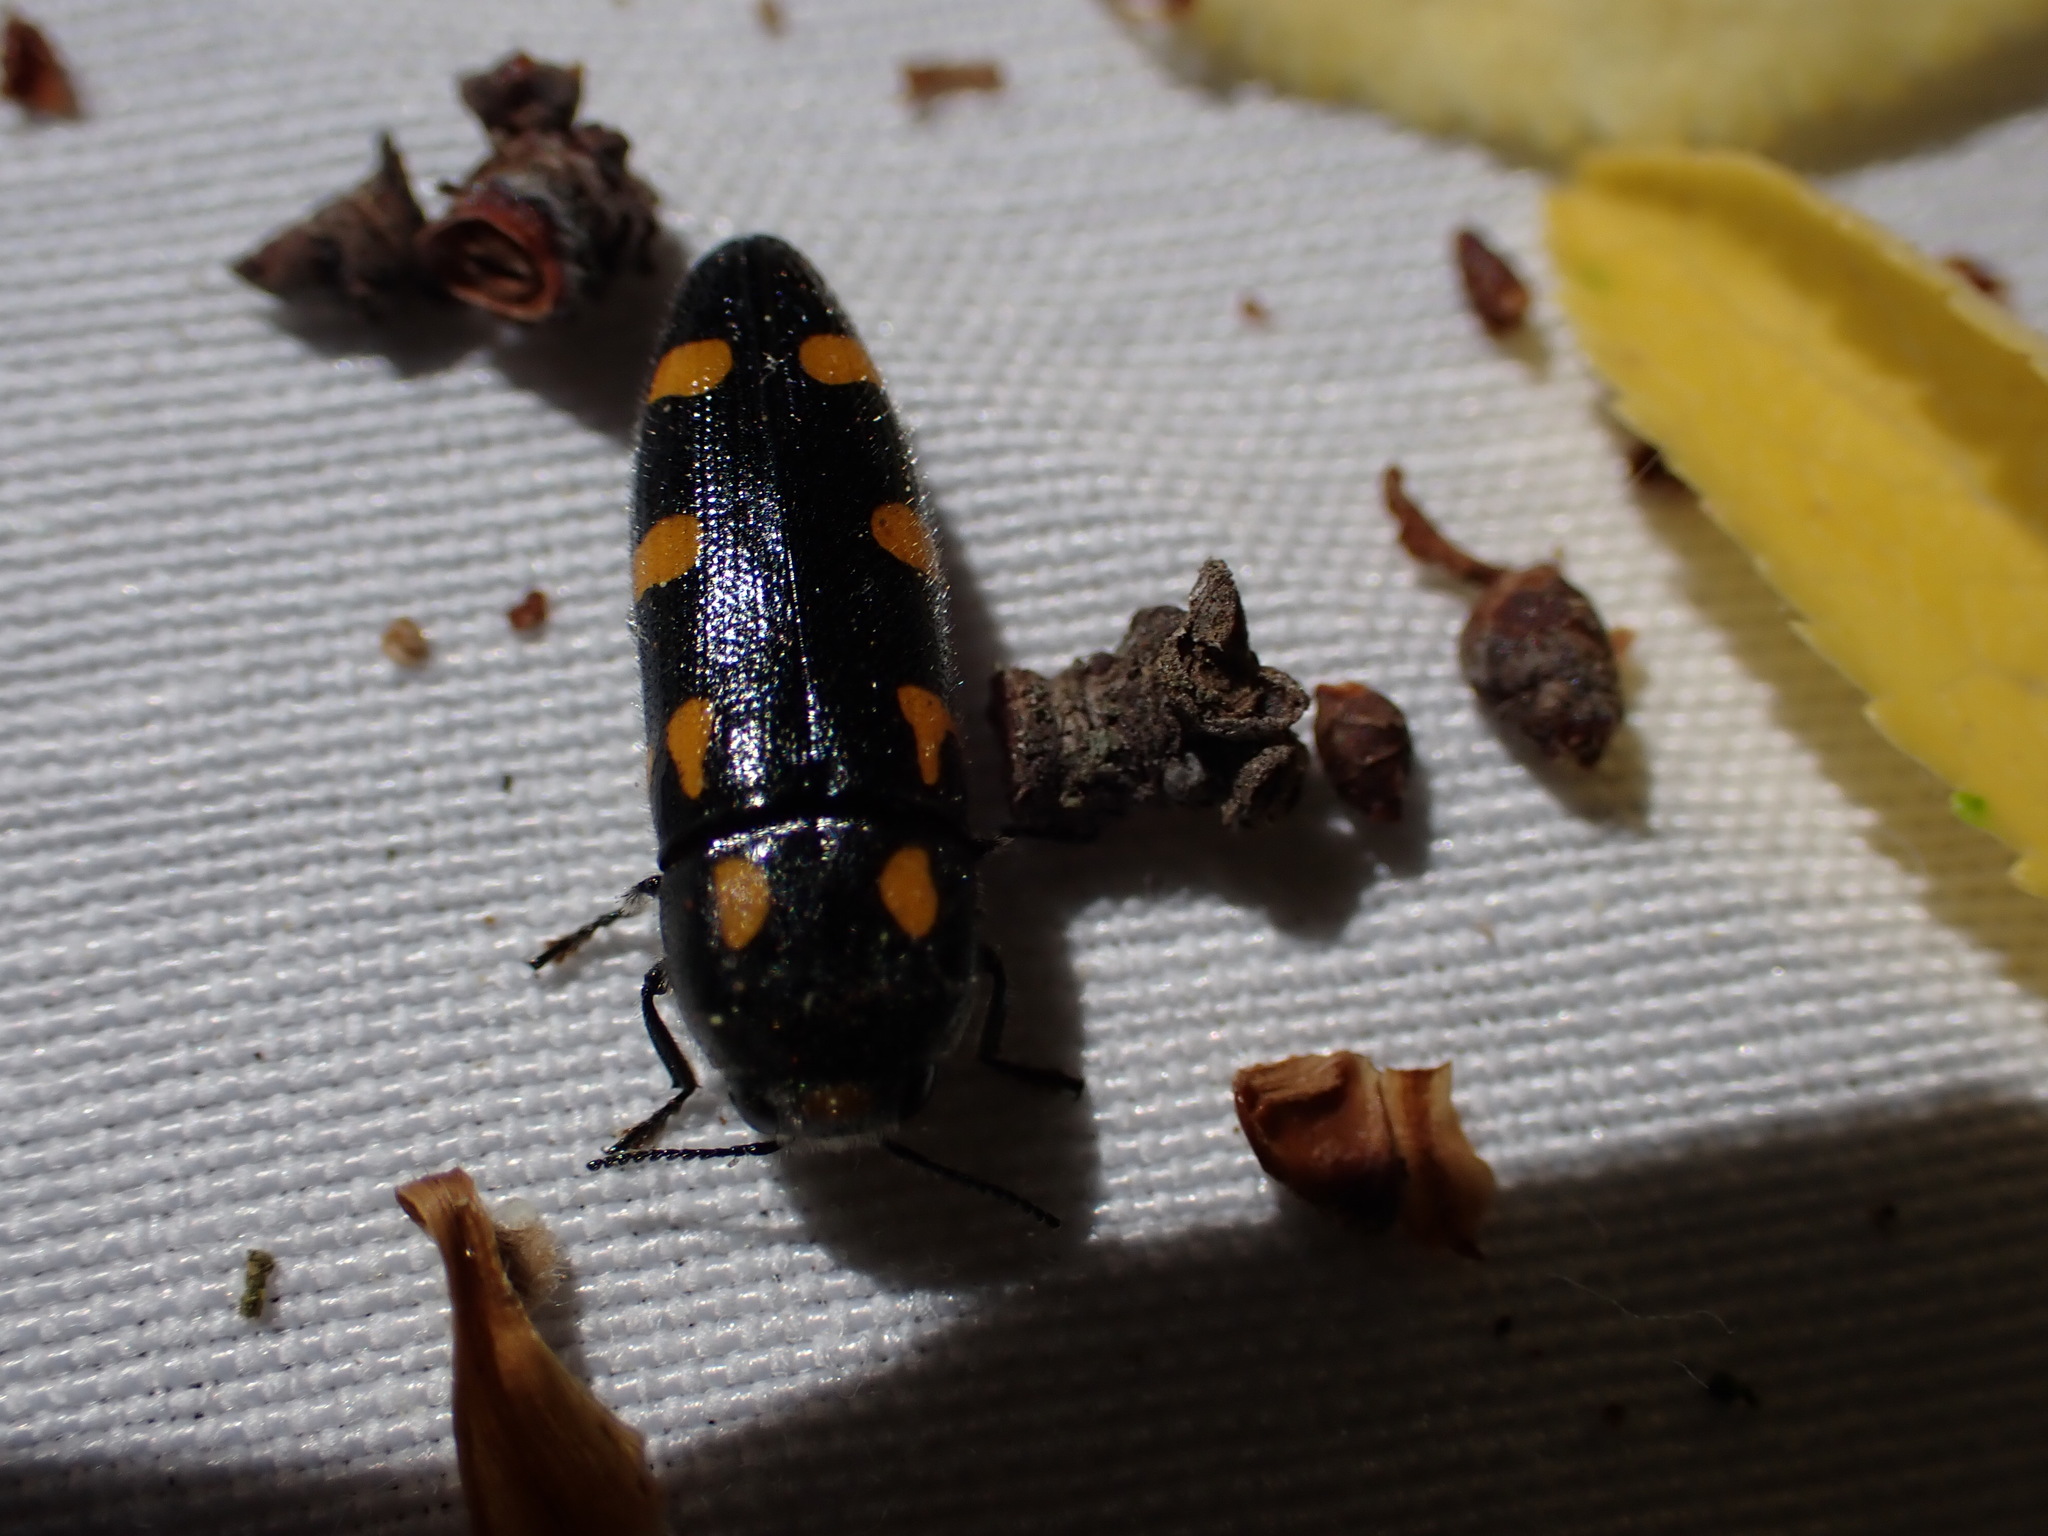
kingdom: Animalia
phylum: Arthropoda
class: Insecta
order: Coleoptera
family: Buprestidae
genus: Ptosima
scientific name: Ptosima undecimmaculata
